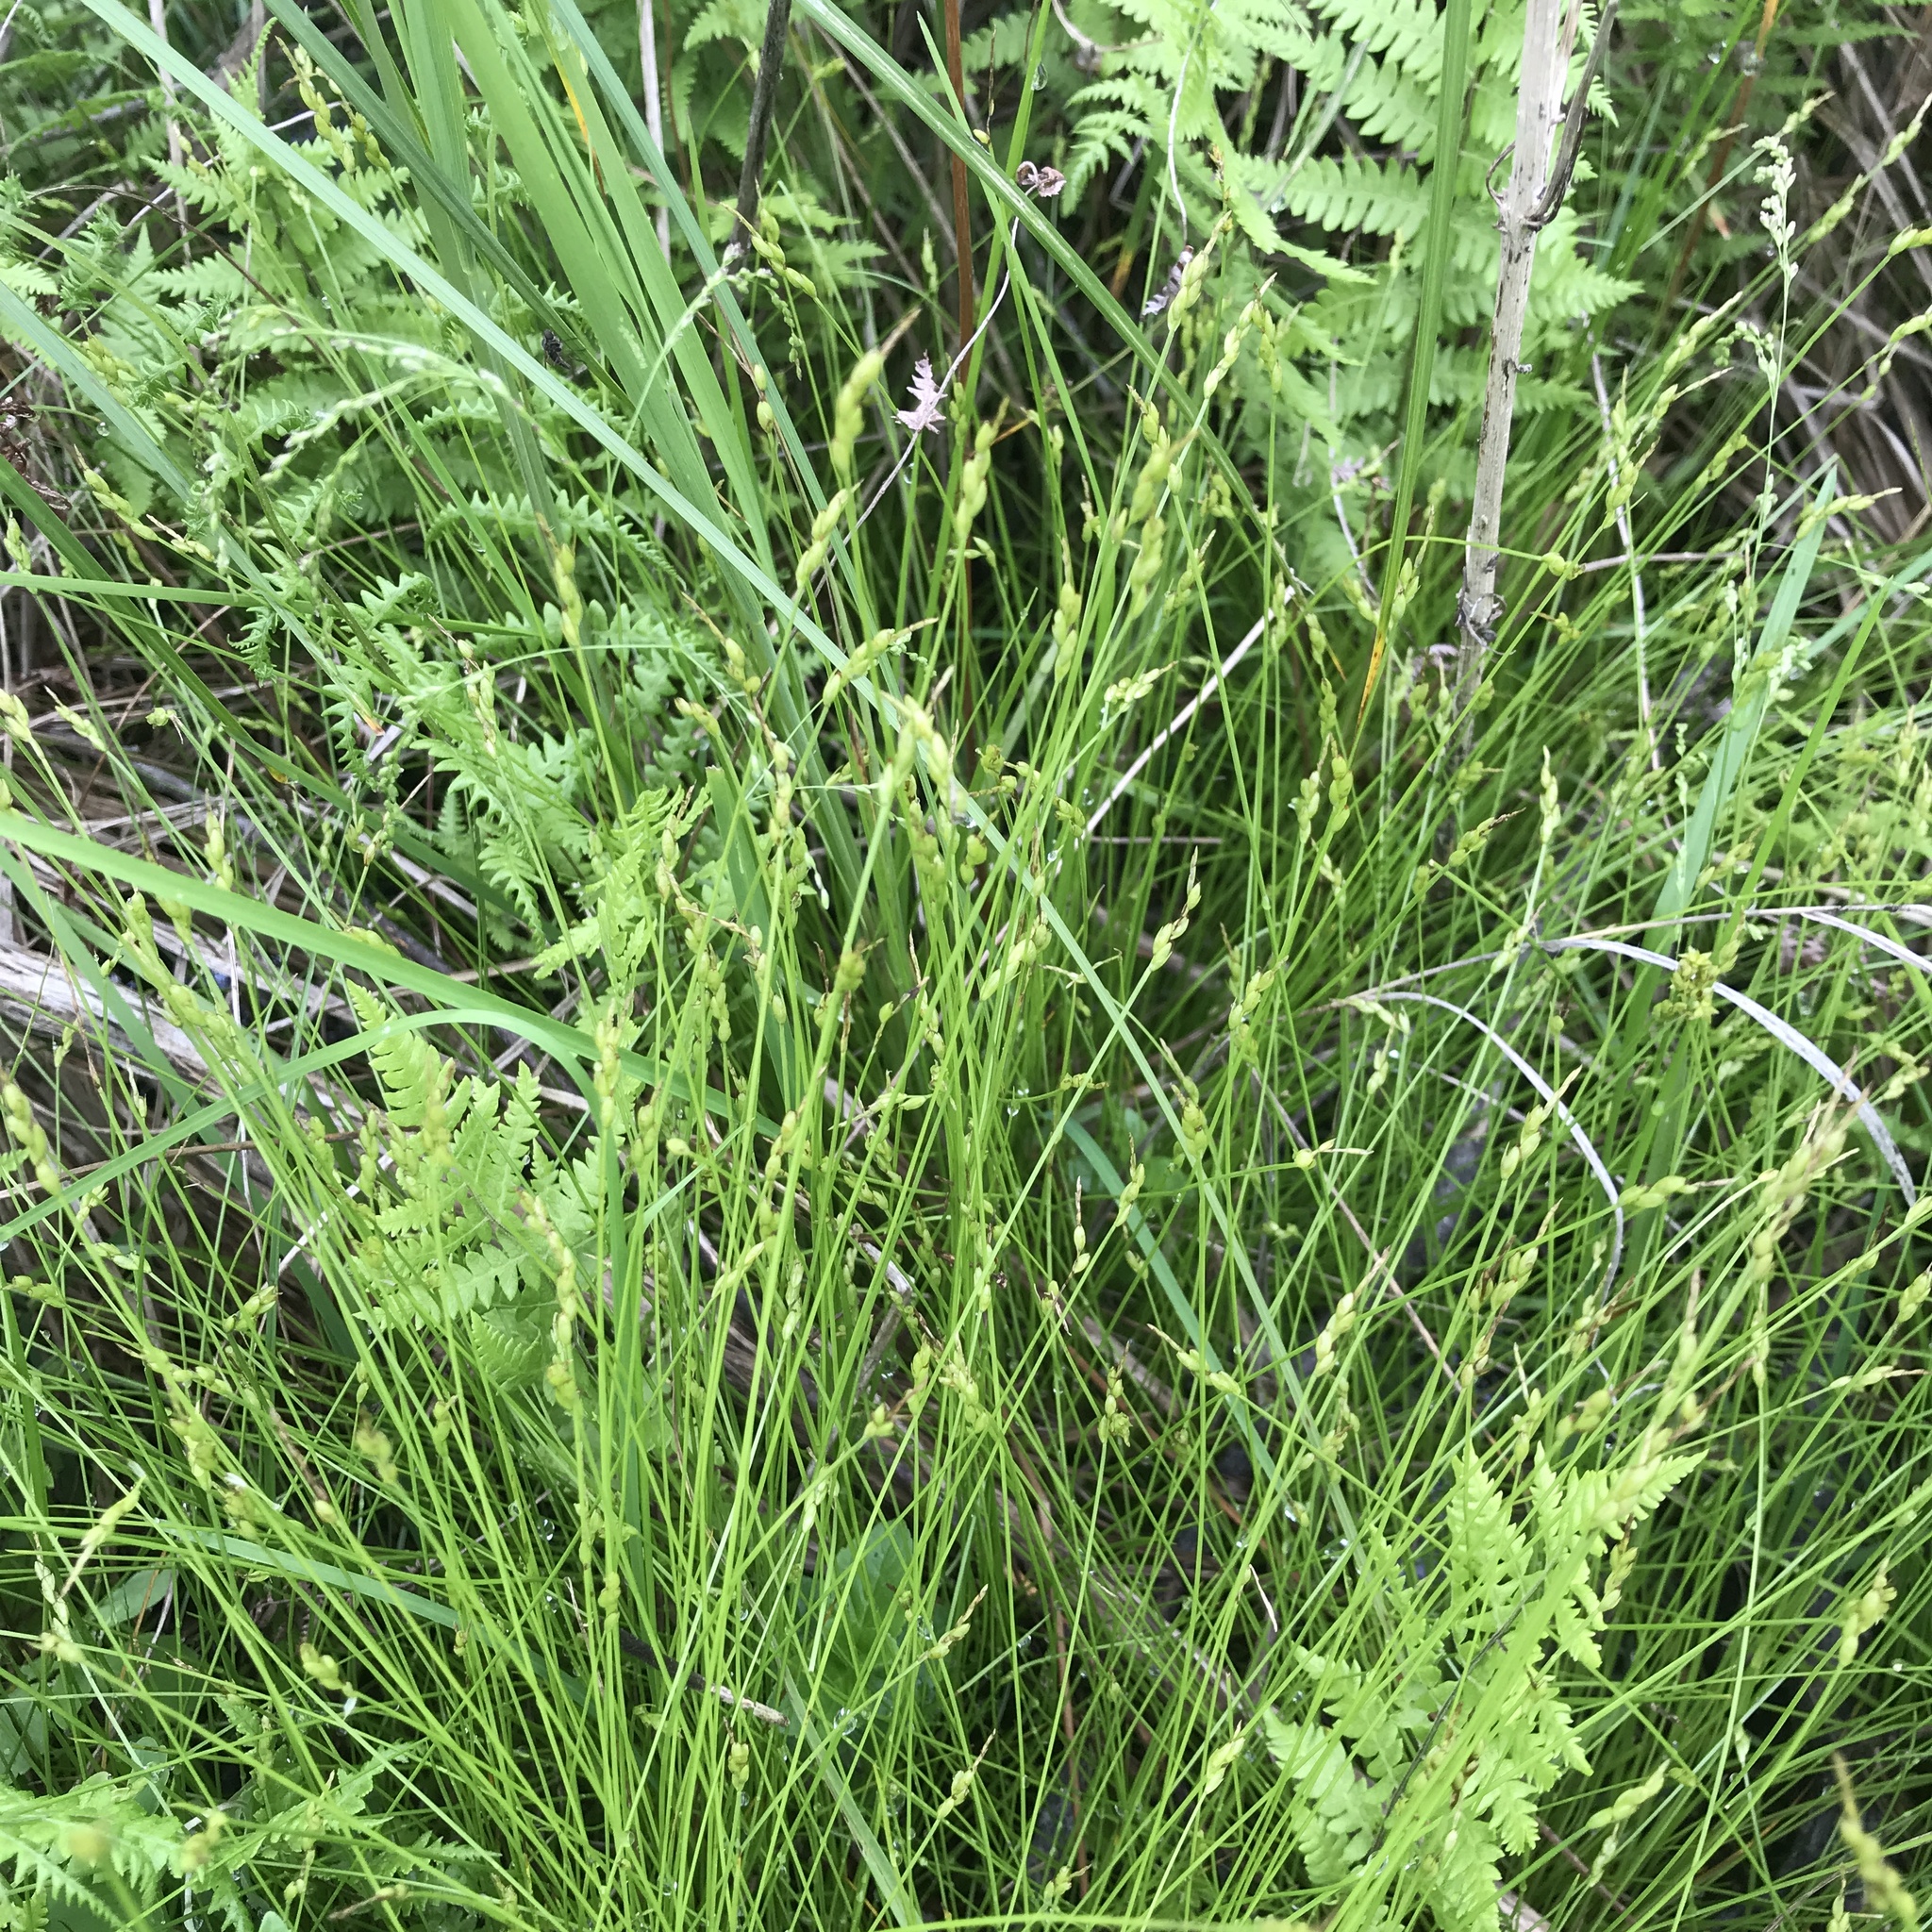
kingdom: Plantae
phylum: Tracheophyta
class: Liliopsida
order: Poales
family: Cyperaceae
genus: Carex
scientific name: Carex leptalea
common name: Bristly-stalked sedge
